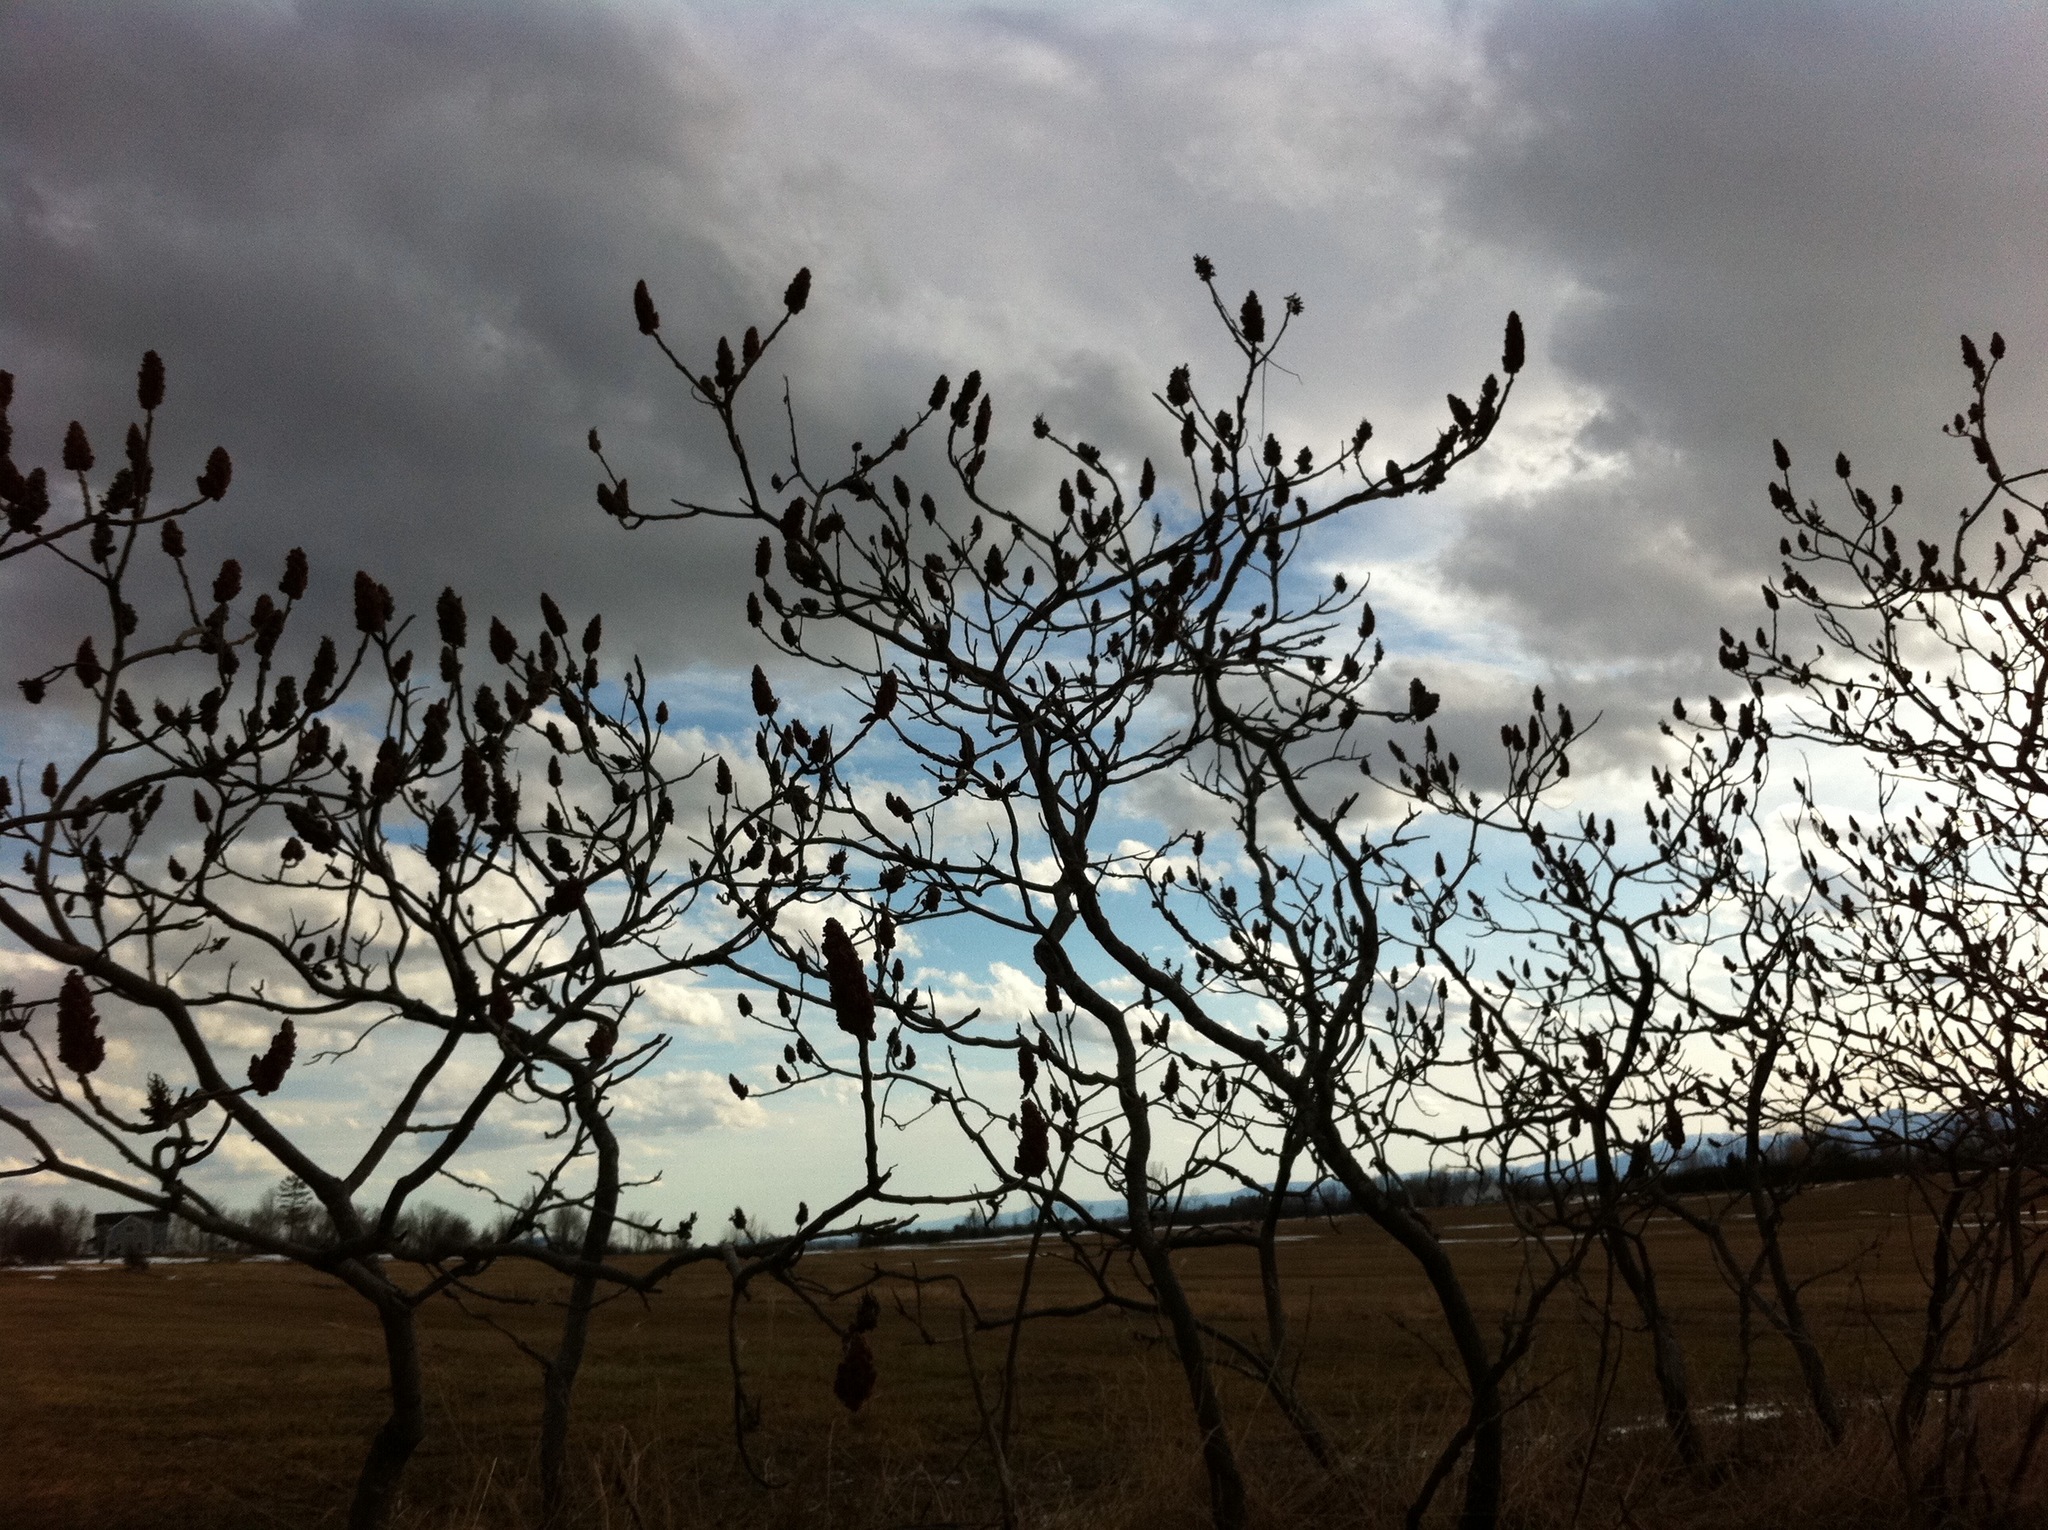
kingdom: Plantae
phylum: Tracheophyta
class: Magnoliopsida
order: Sapindales
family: Anacardiaceae
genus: Rhus
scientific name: Rhus typhina
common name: Staghorn sumac
